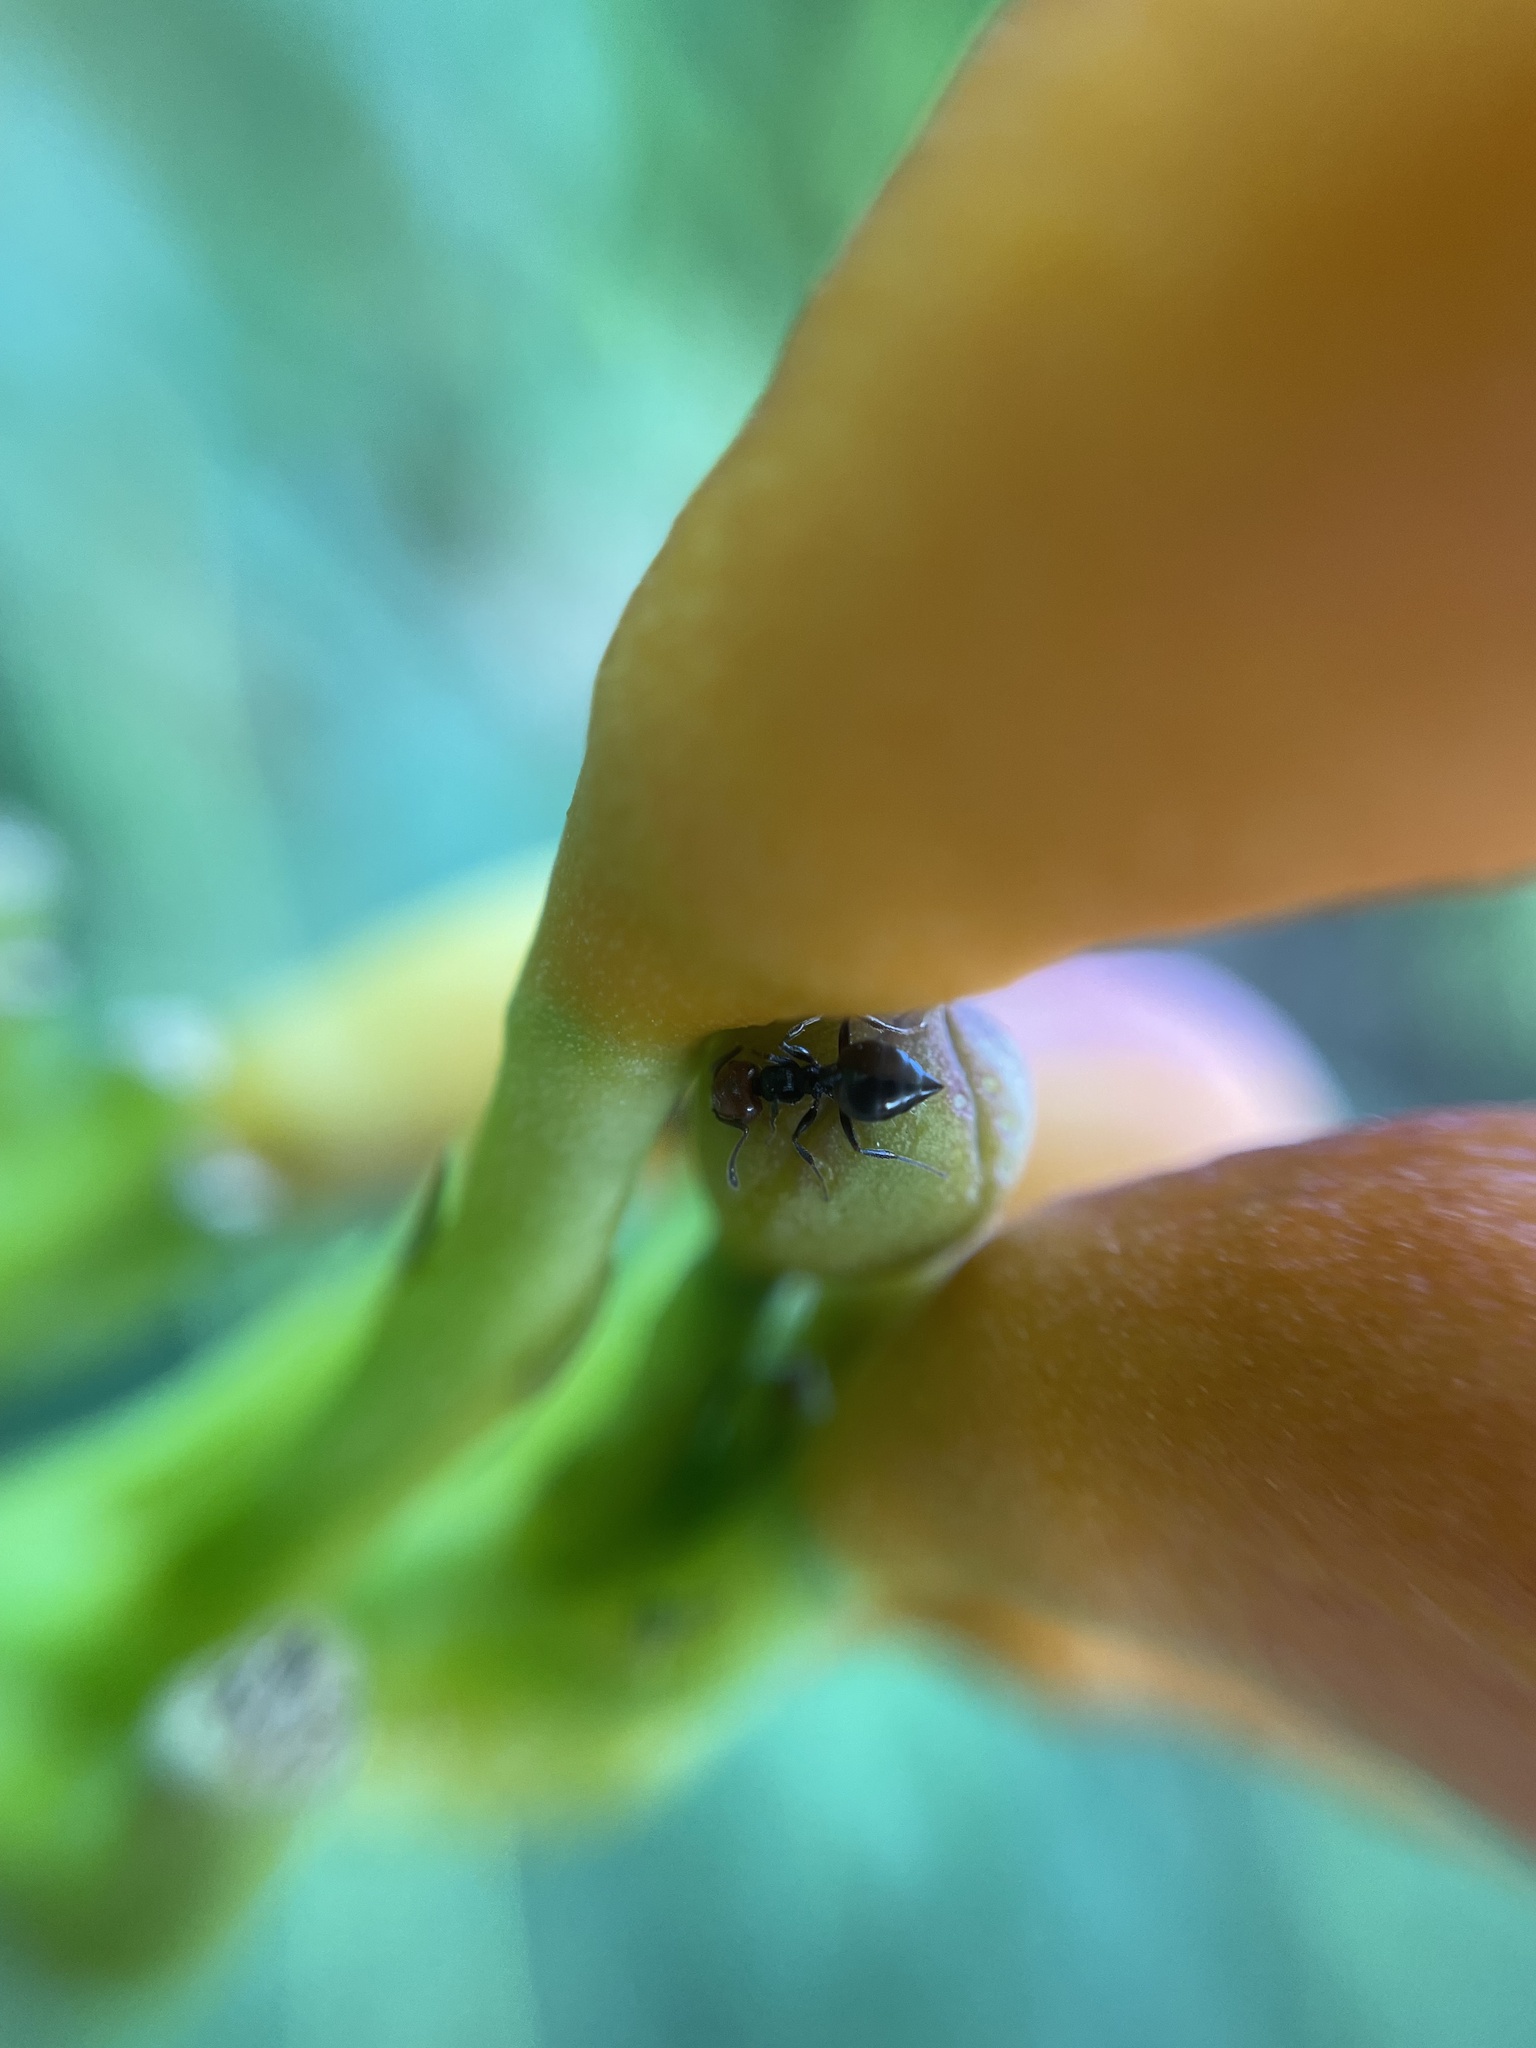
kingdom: Animalia
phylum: Arthropoda
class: Insecta
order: Hymenoptera
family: Formicidae
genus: Crematogaster
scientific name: Crematogaster scutellaris
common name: Fourmi du liège
